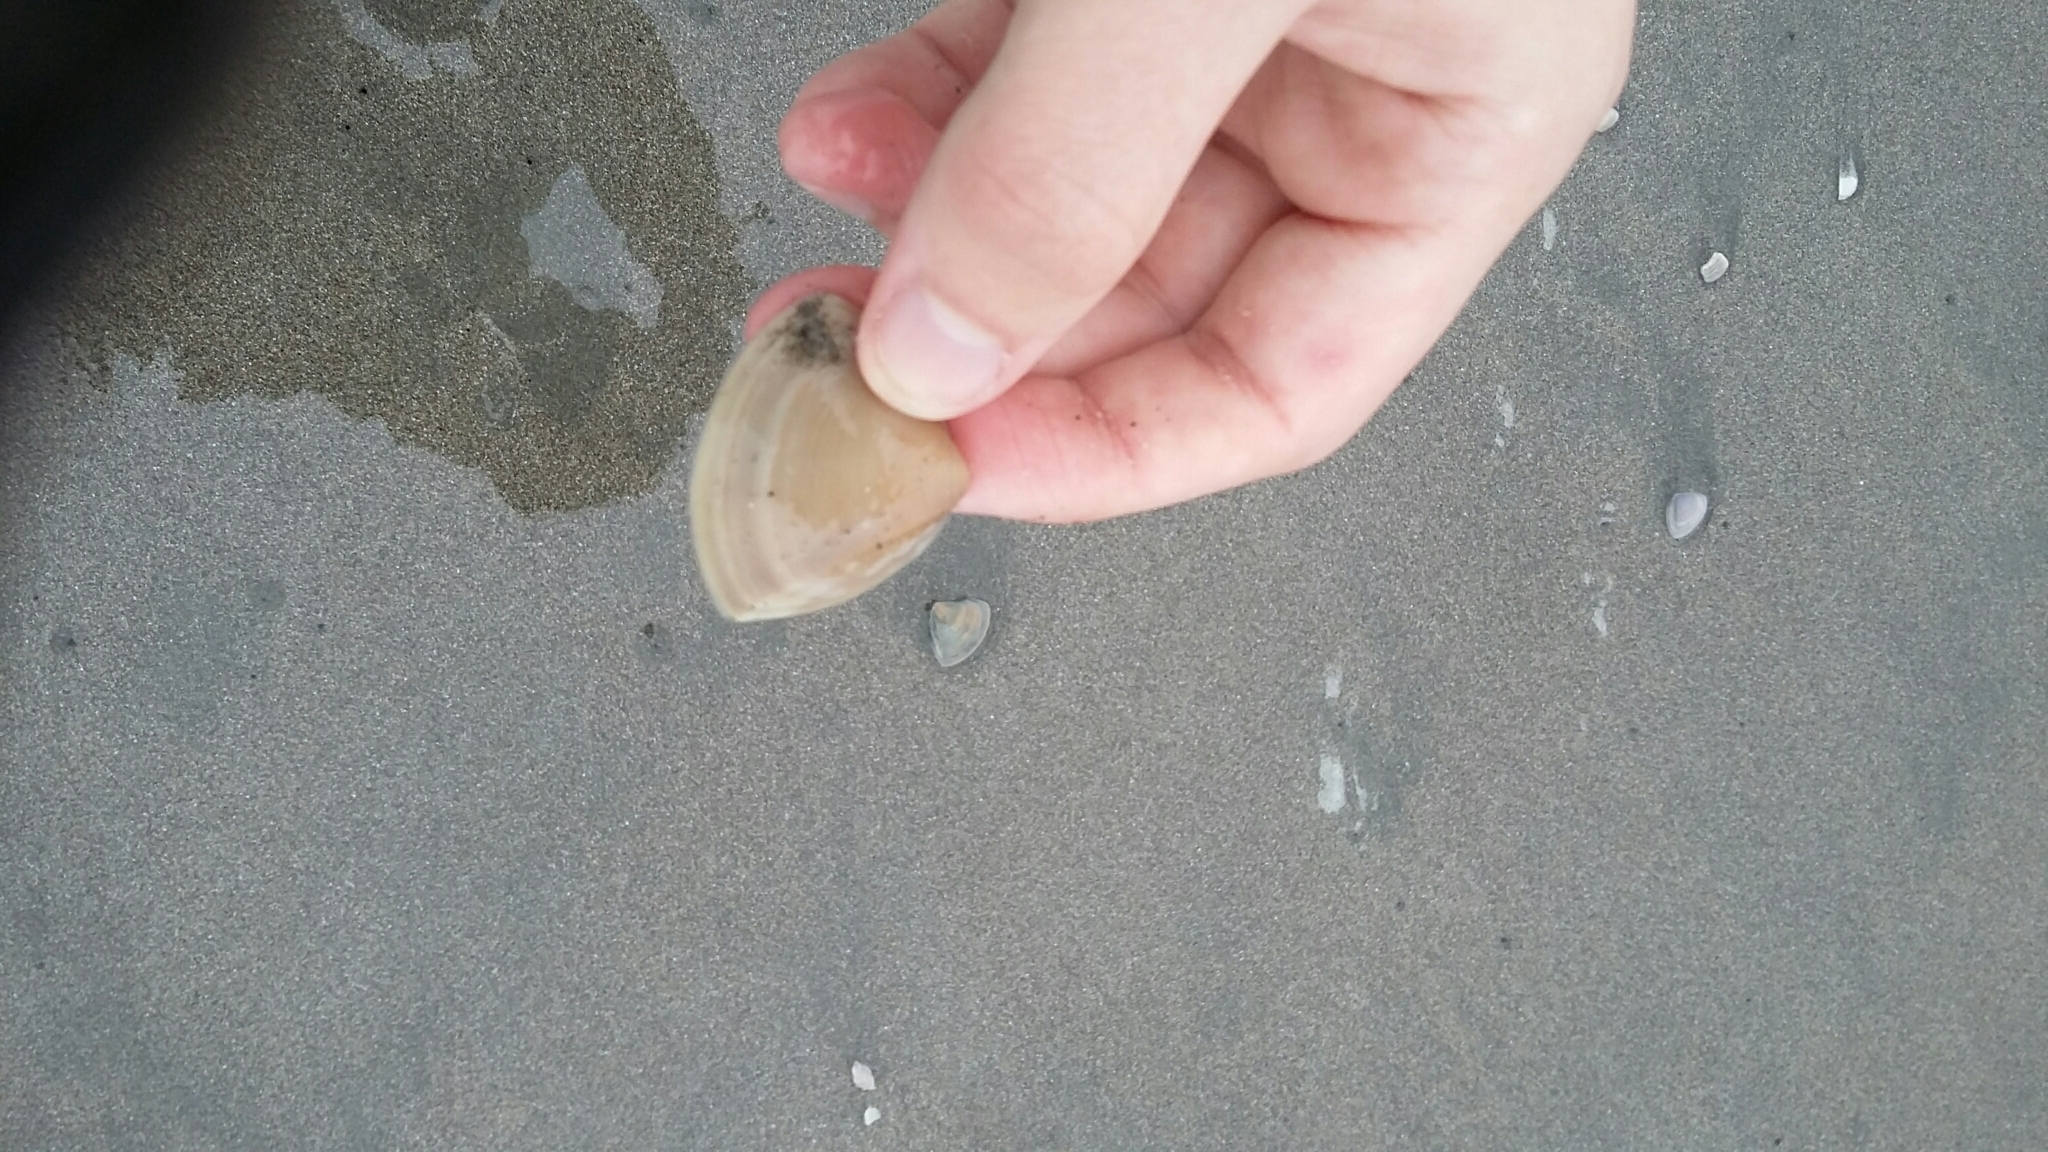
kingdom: Animalia
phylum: Mollusca
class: Bivalvia
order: Venerida
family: Mactridae
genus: Crassula
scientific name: Crassula aequilatera
